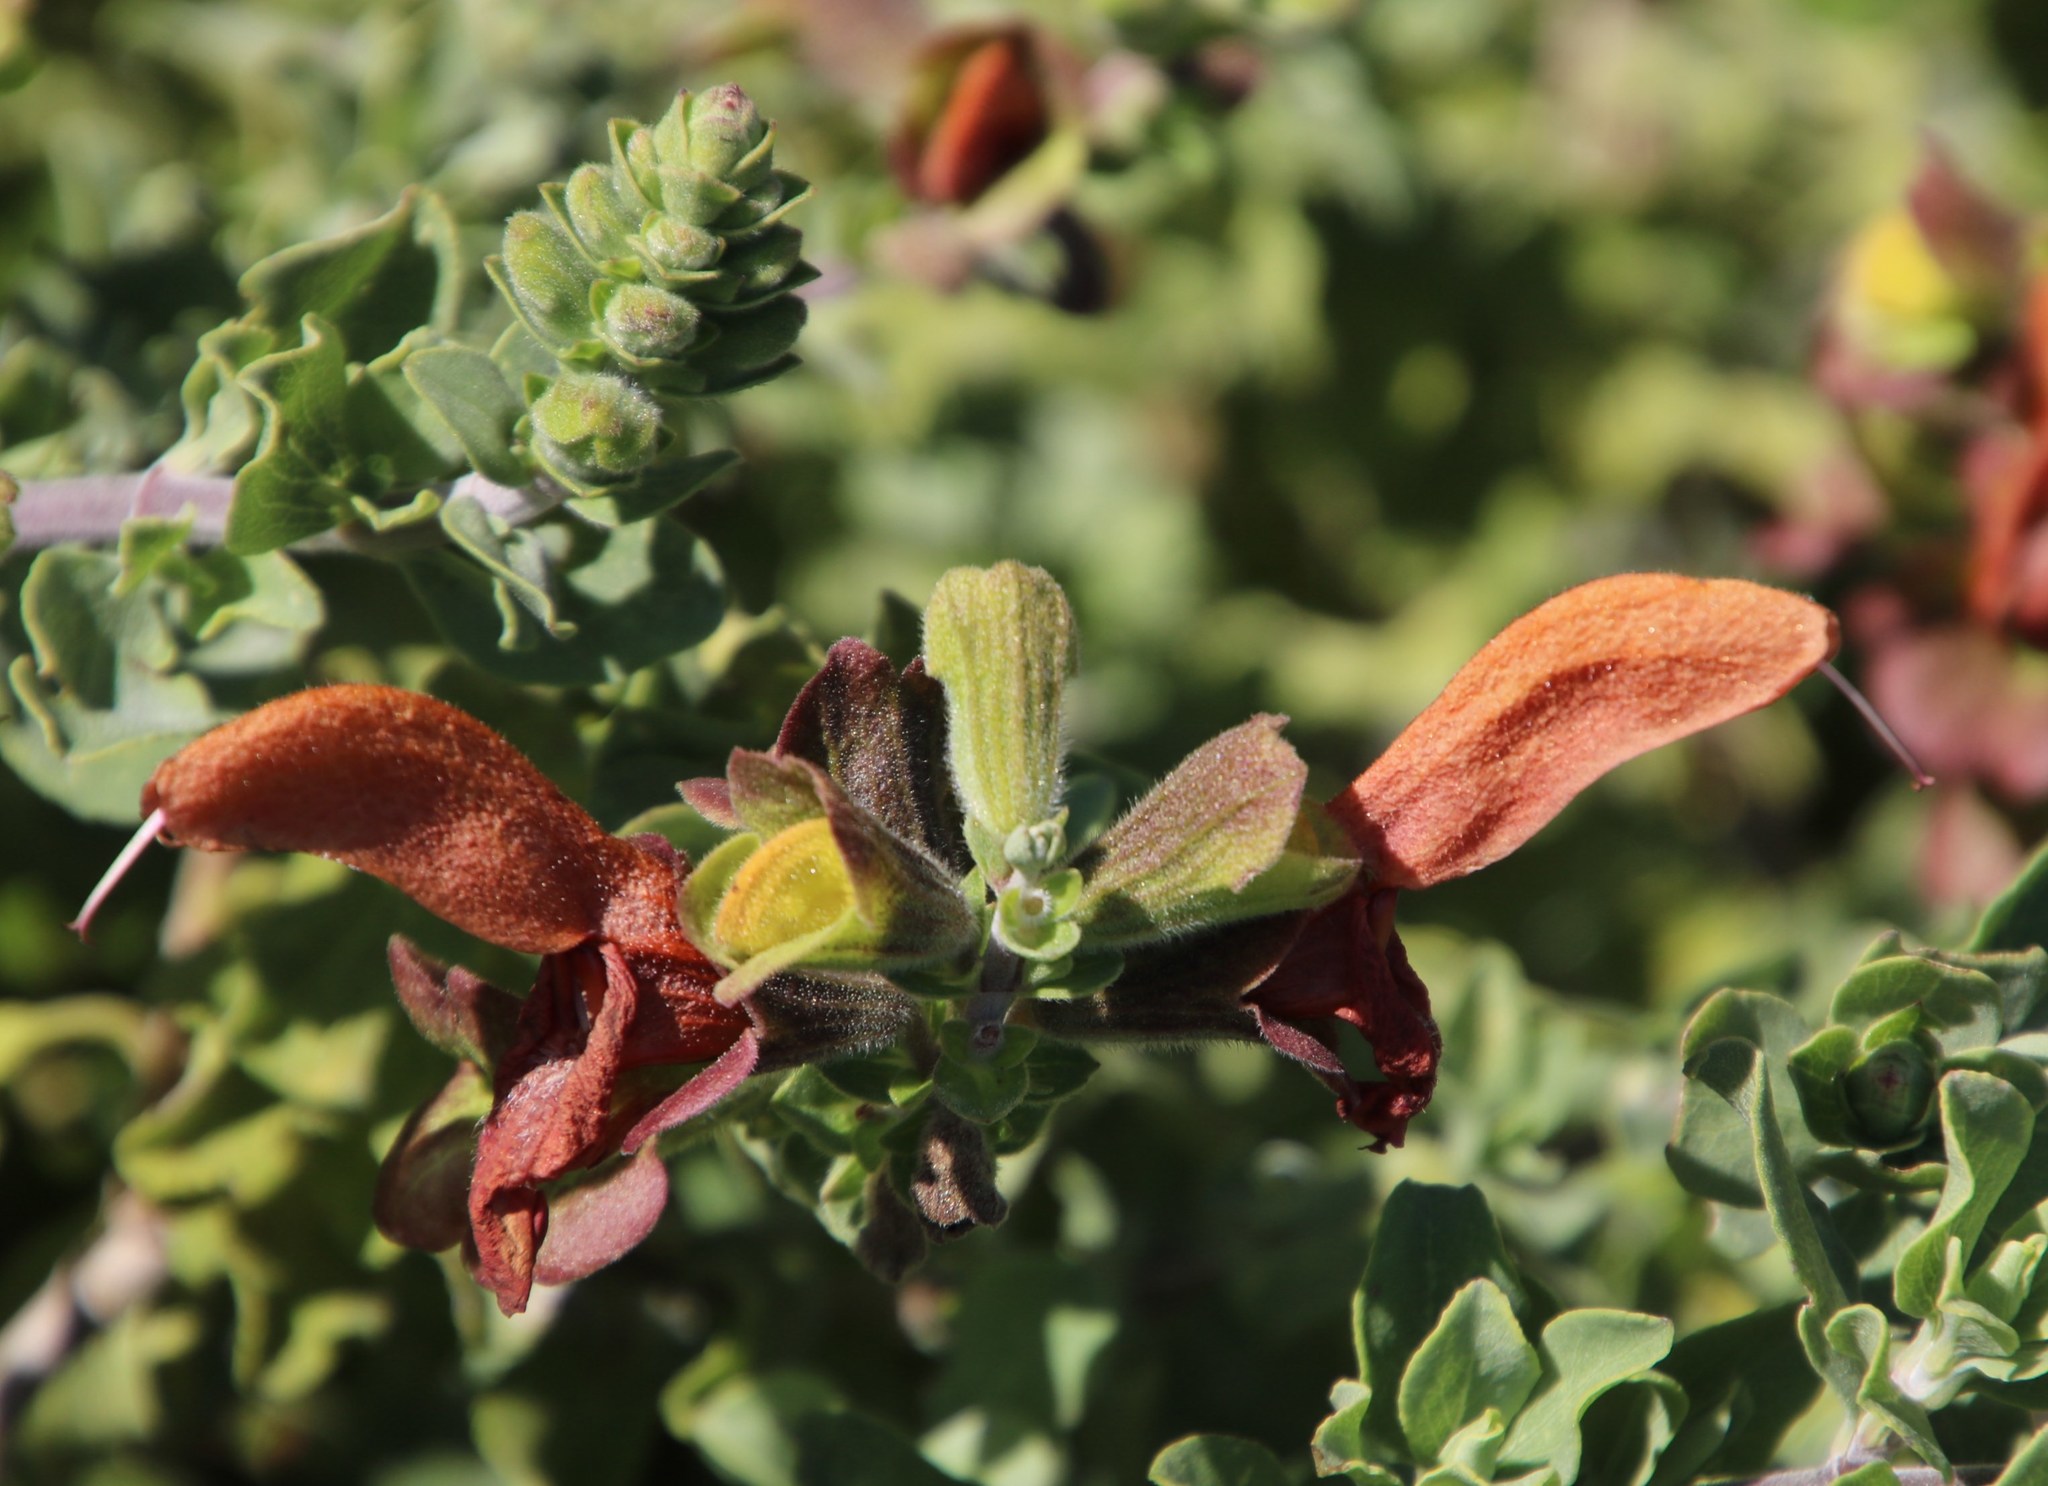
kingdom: Plantae
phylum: Tracheophyta
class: Magnoliopsida
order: Lamiales
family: Lamiaceae
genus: Salvia
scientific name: Salvia aurea
